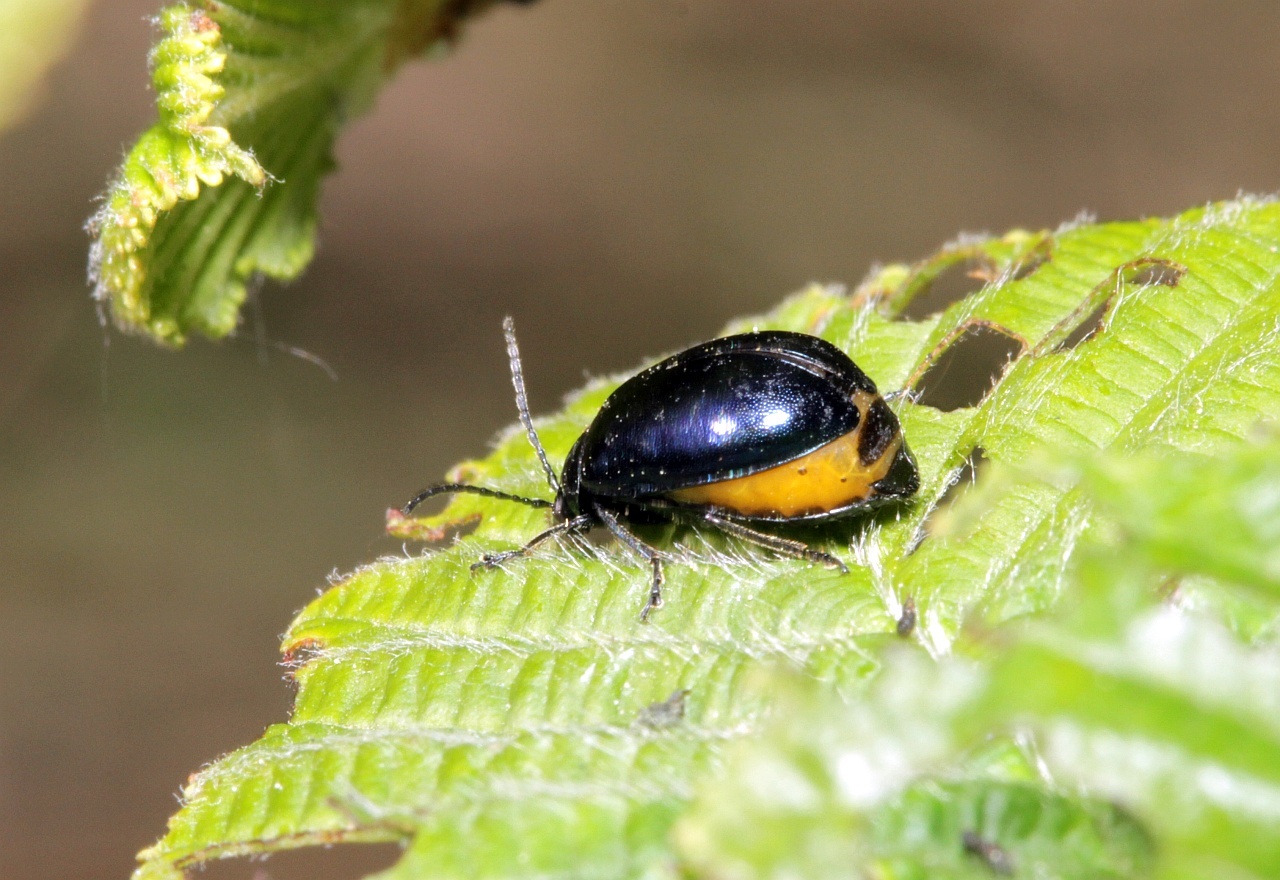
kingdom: Animalia
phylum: Arthropoda
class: Insecta
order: Coleoptera
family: Chrysomelidae
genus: Agelastica
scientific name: Agelastica alni
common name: Alder leaf beetle
